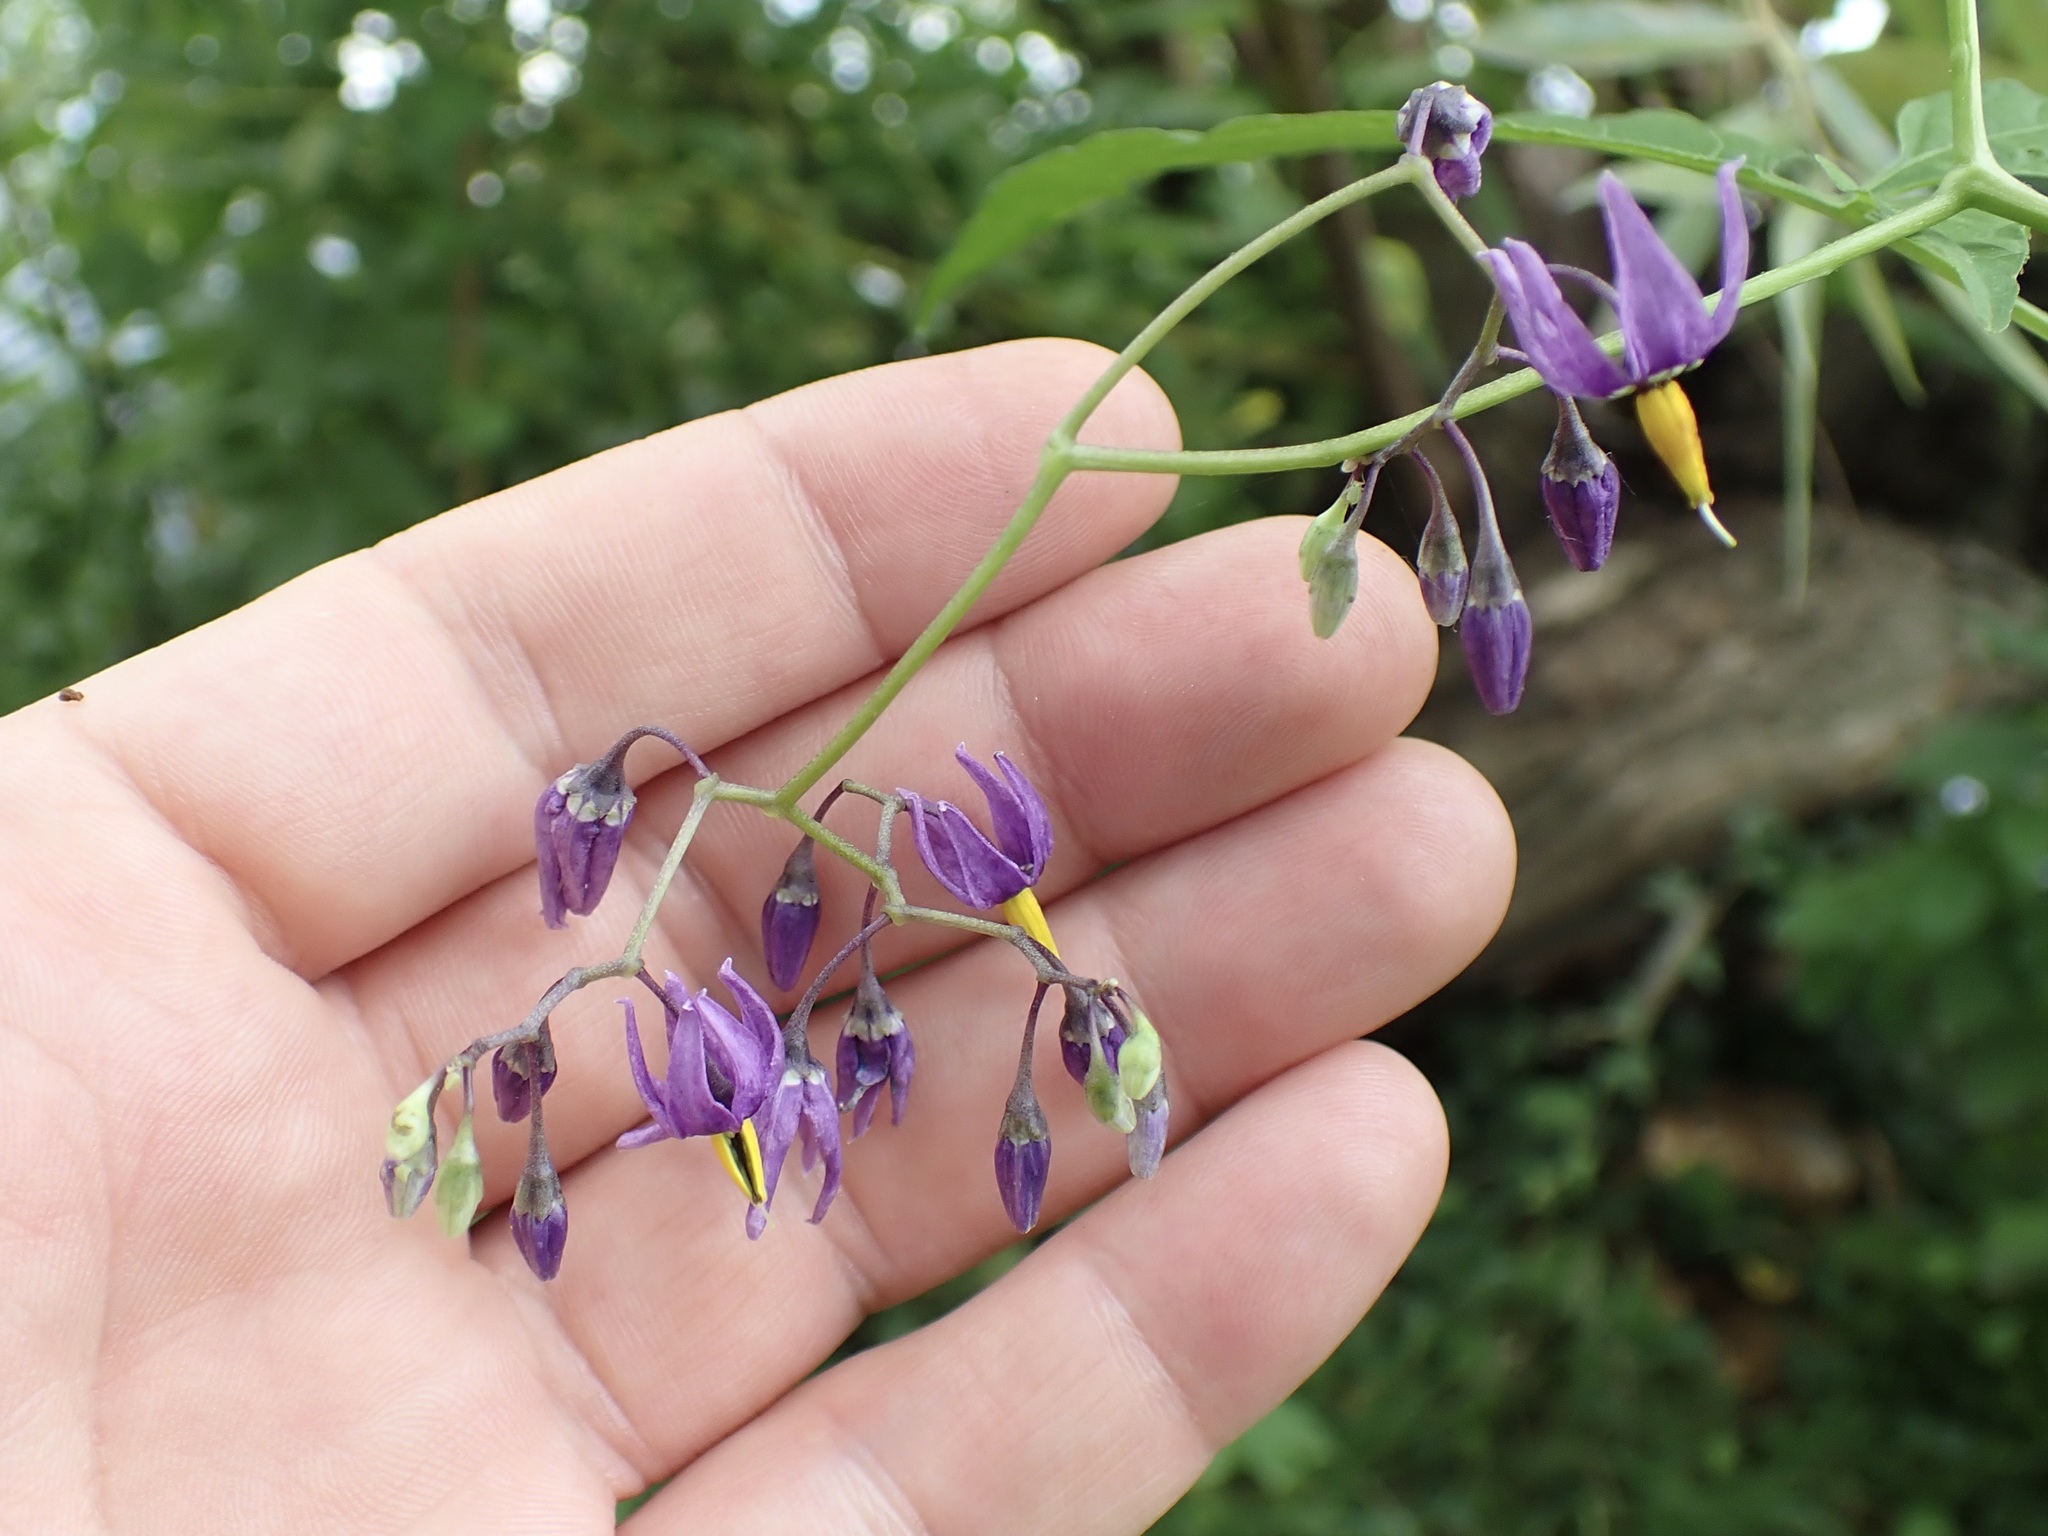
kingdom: Plantae
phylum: Tracheophyta
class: Magnoliopsida
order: Solanales
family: Solanaceae
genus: Solanum
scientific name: Solanum dulcamara
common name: Climbing nightshade
